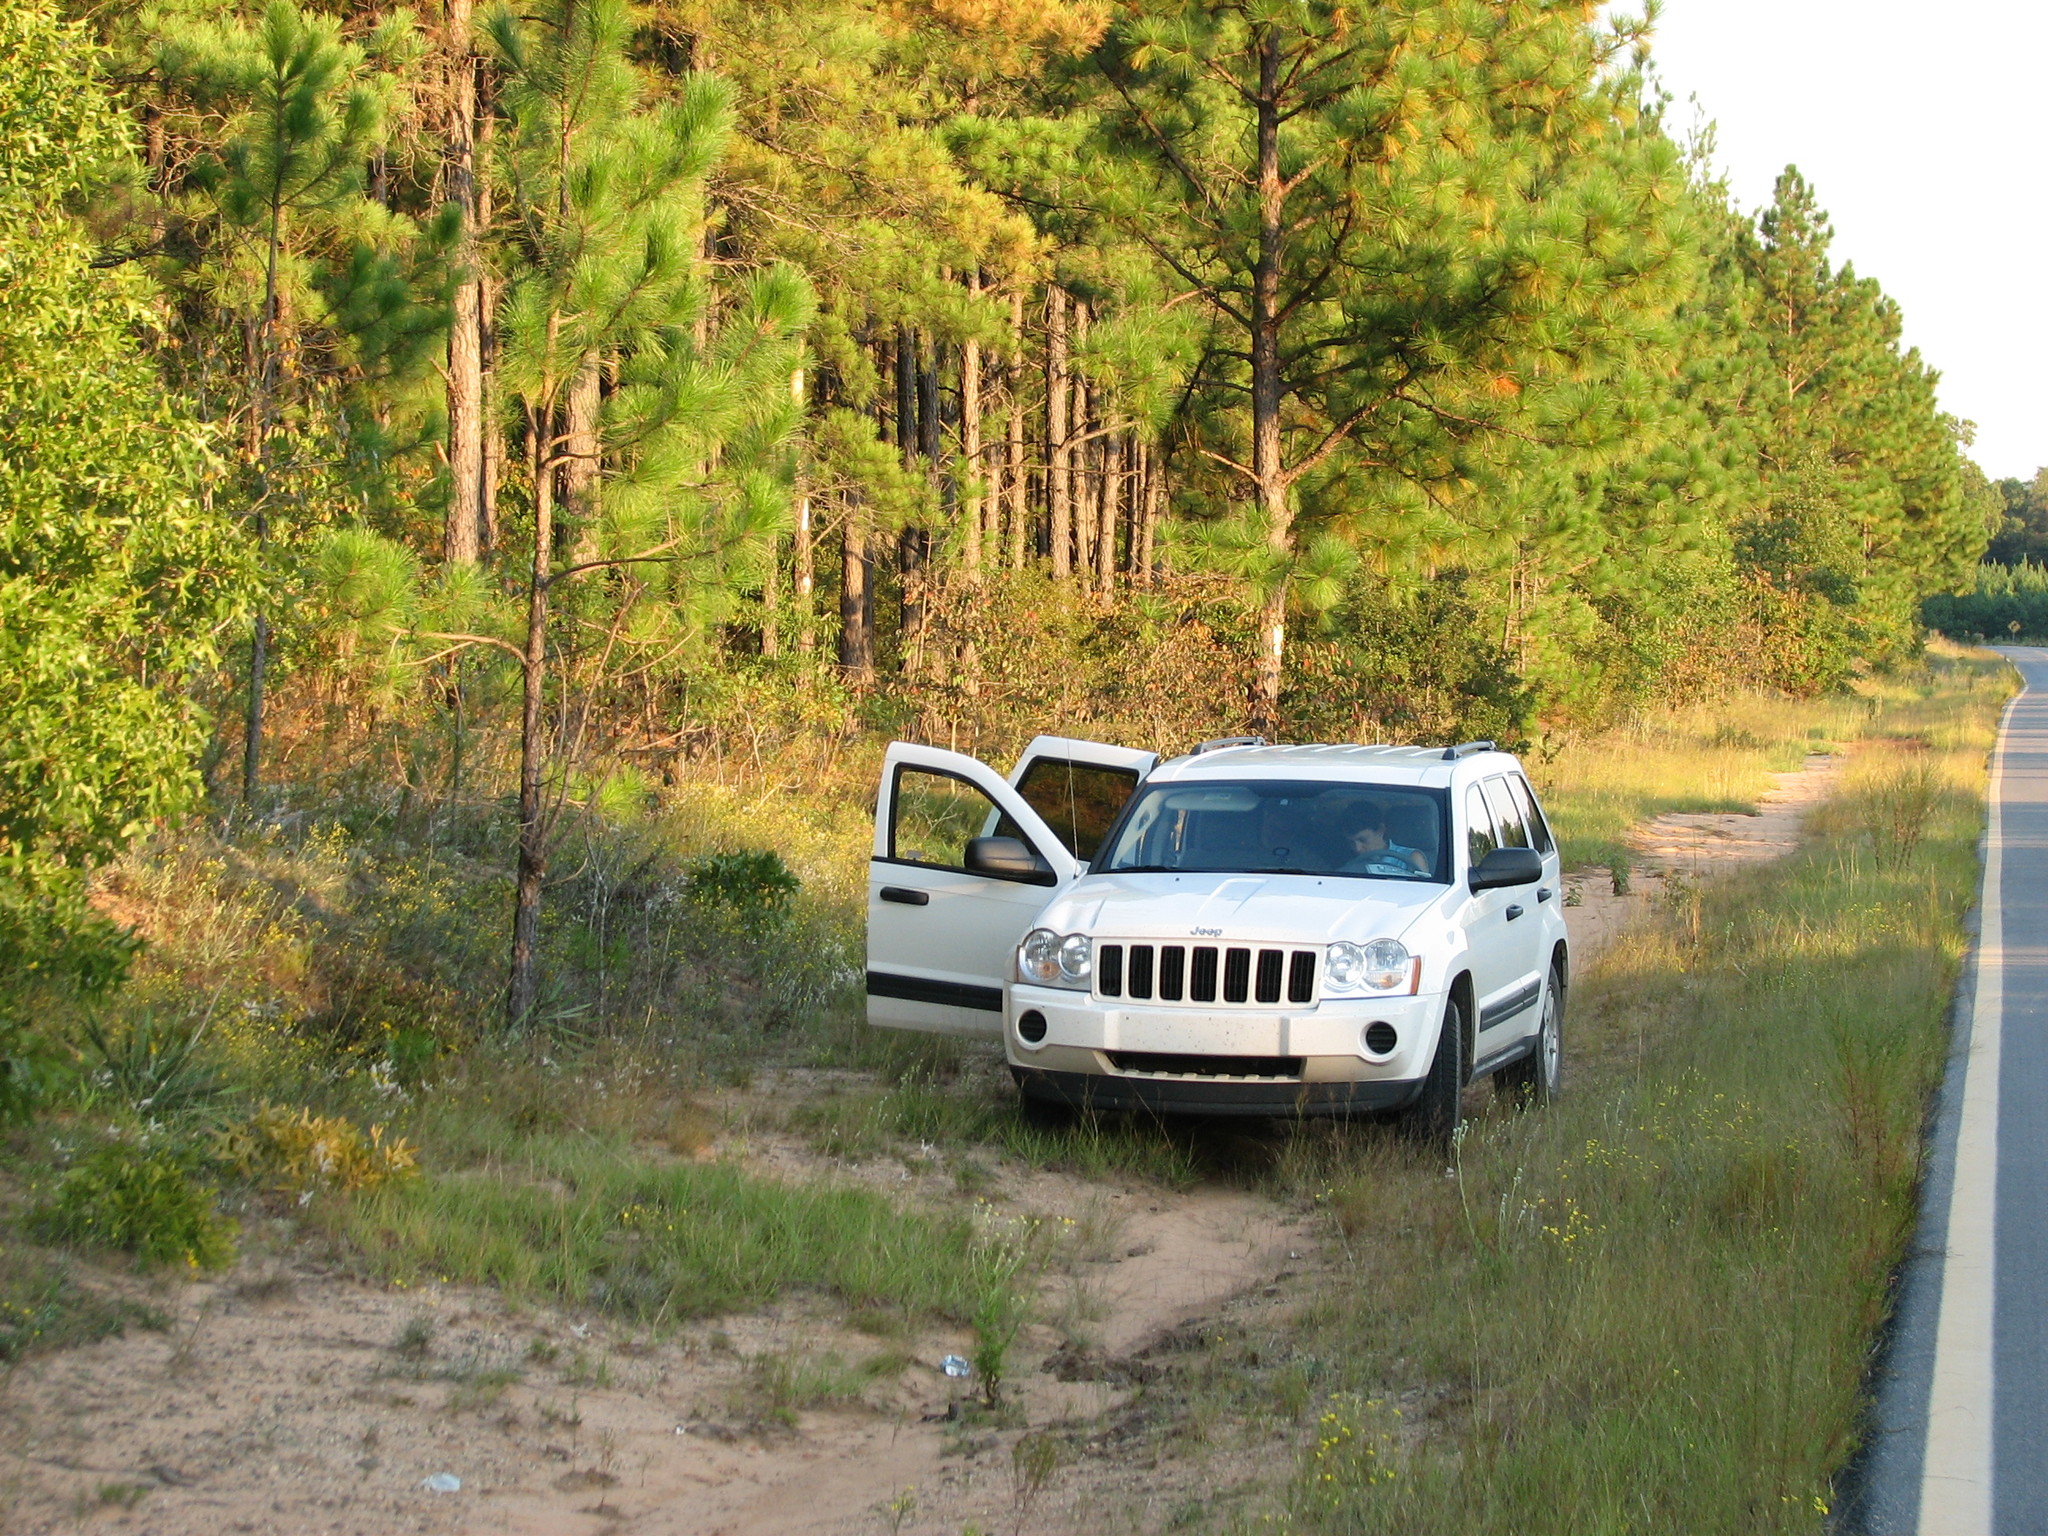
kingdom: Plantae
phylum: Tracheophyta
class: Magnoliopsida
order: Asterales
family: Asteraceae
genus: Helianthus
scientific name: Helianthus smithii
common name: Smith's sunflower
